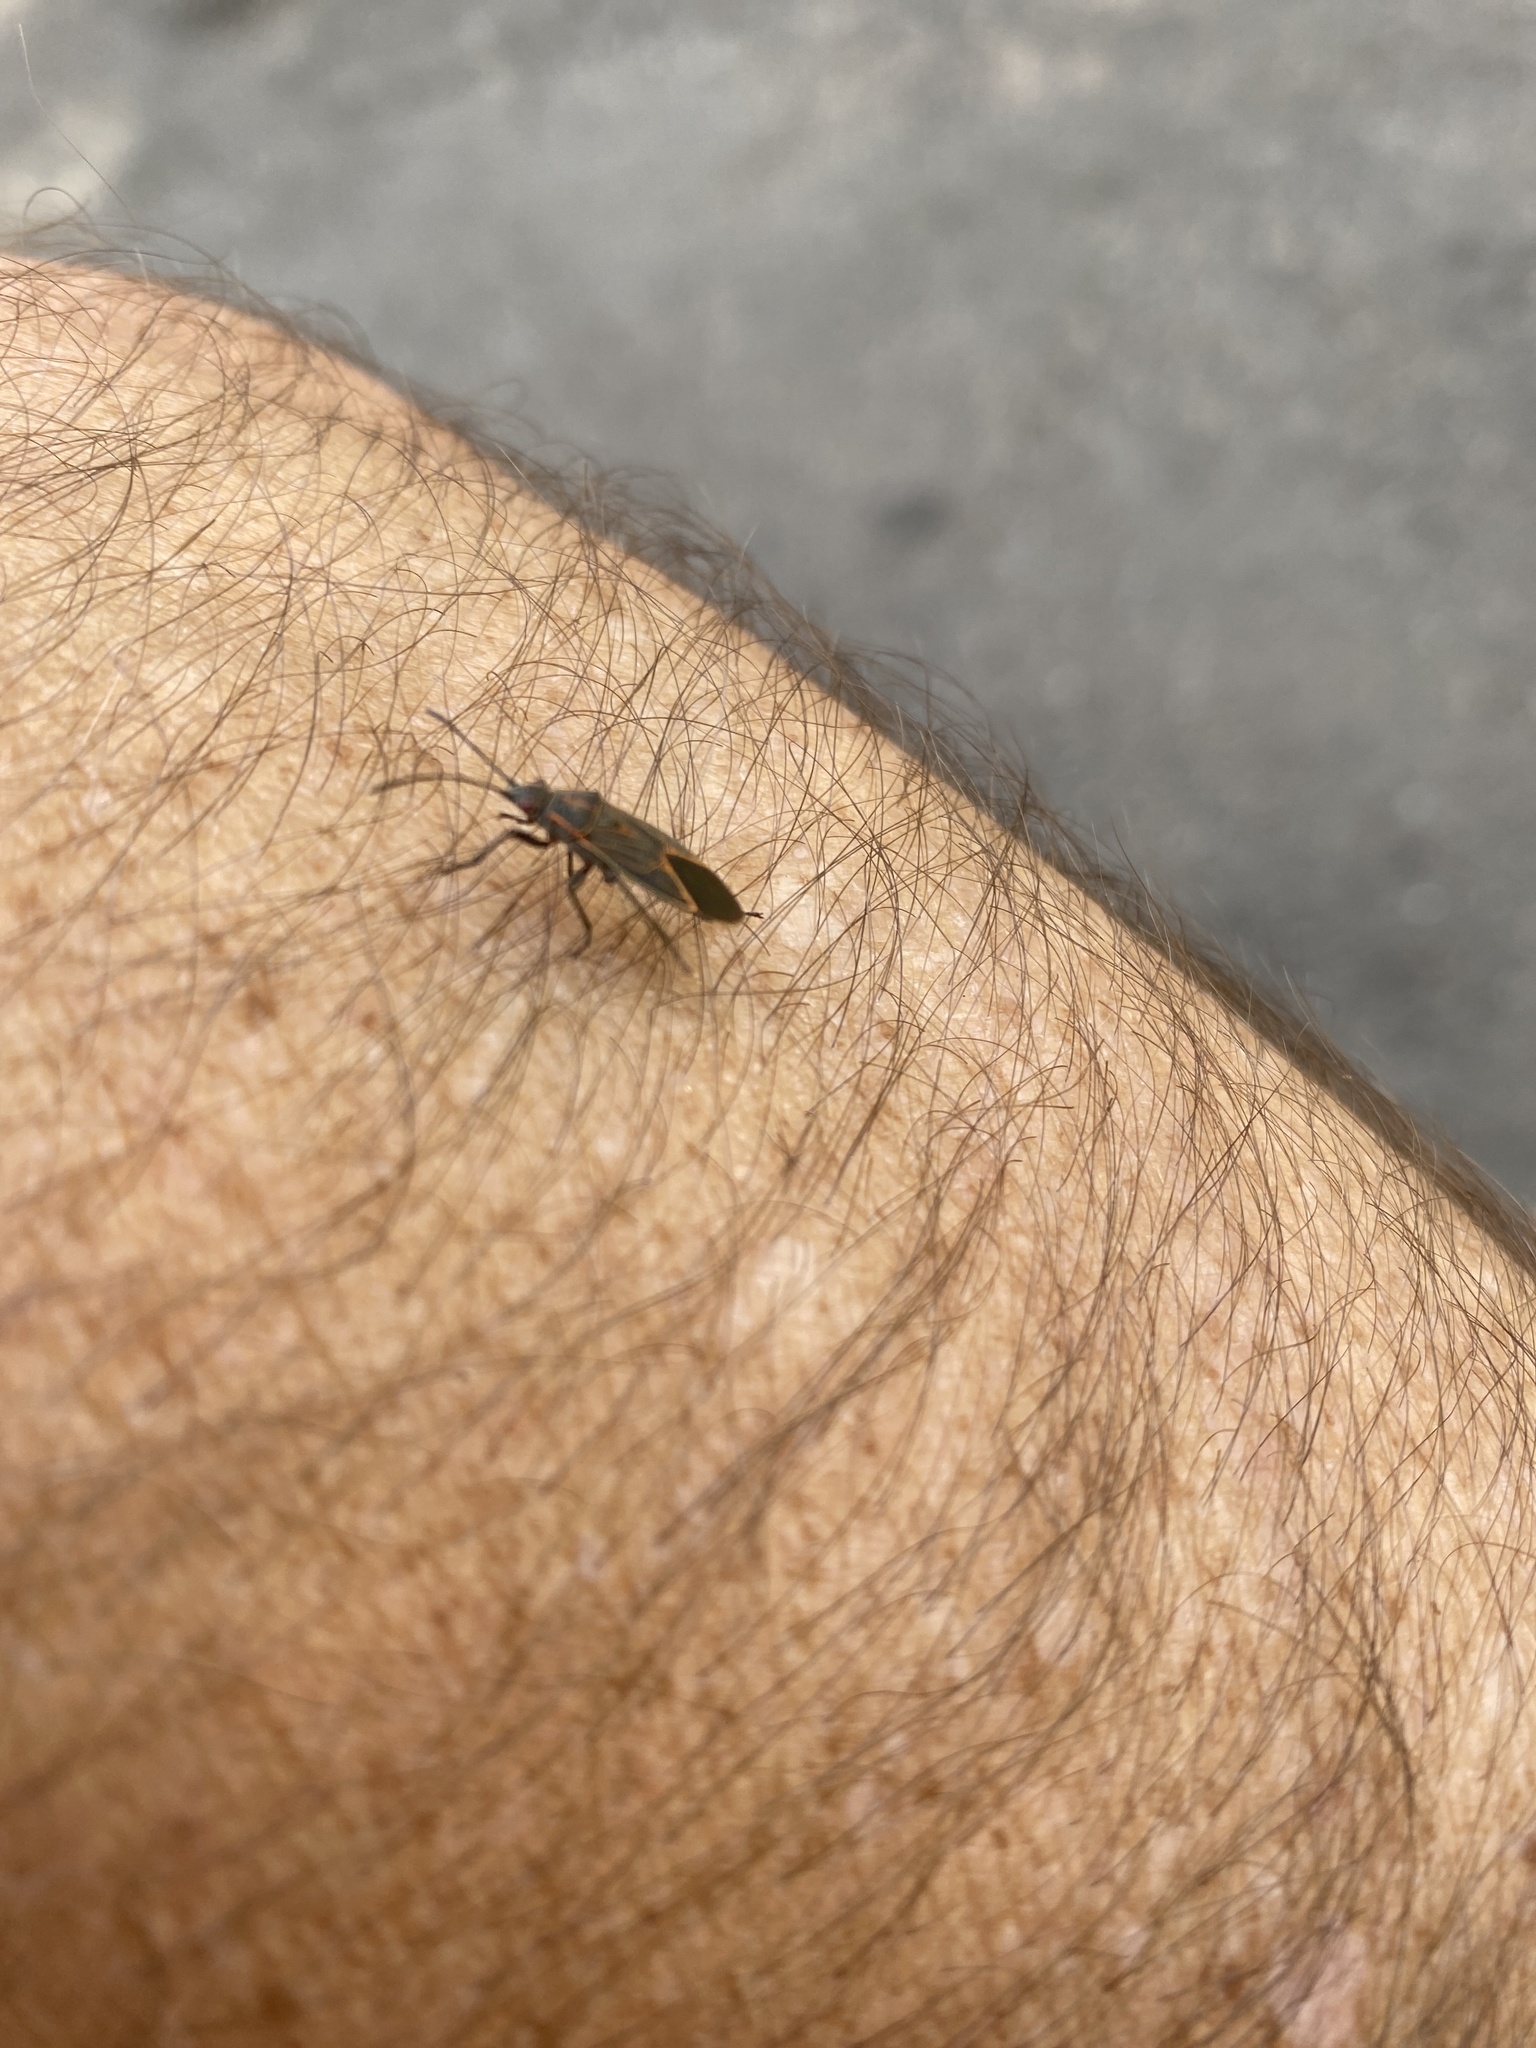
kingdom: Animalia
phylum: Arthropoda
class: Insecta
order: Hemiptera
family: Rhopalidae
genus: Boisea
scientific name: Boisea rubrolineata
